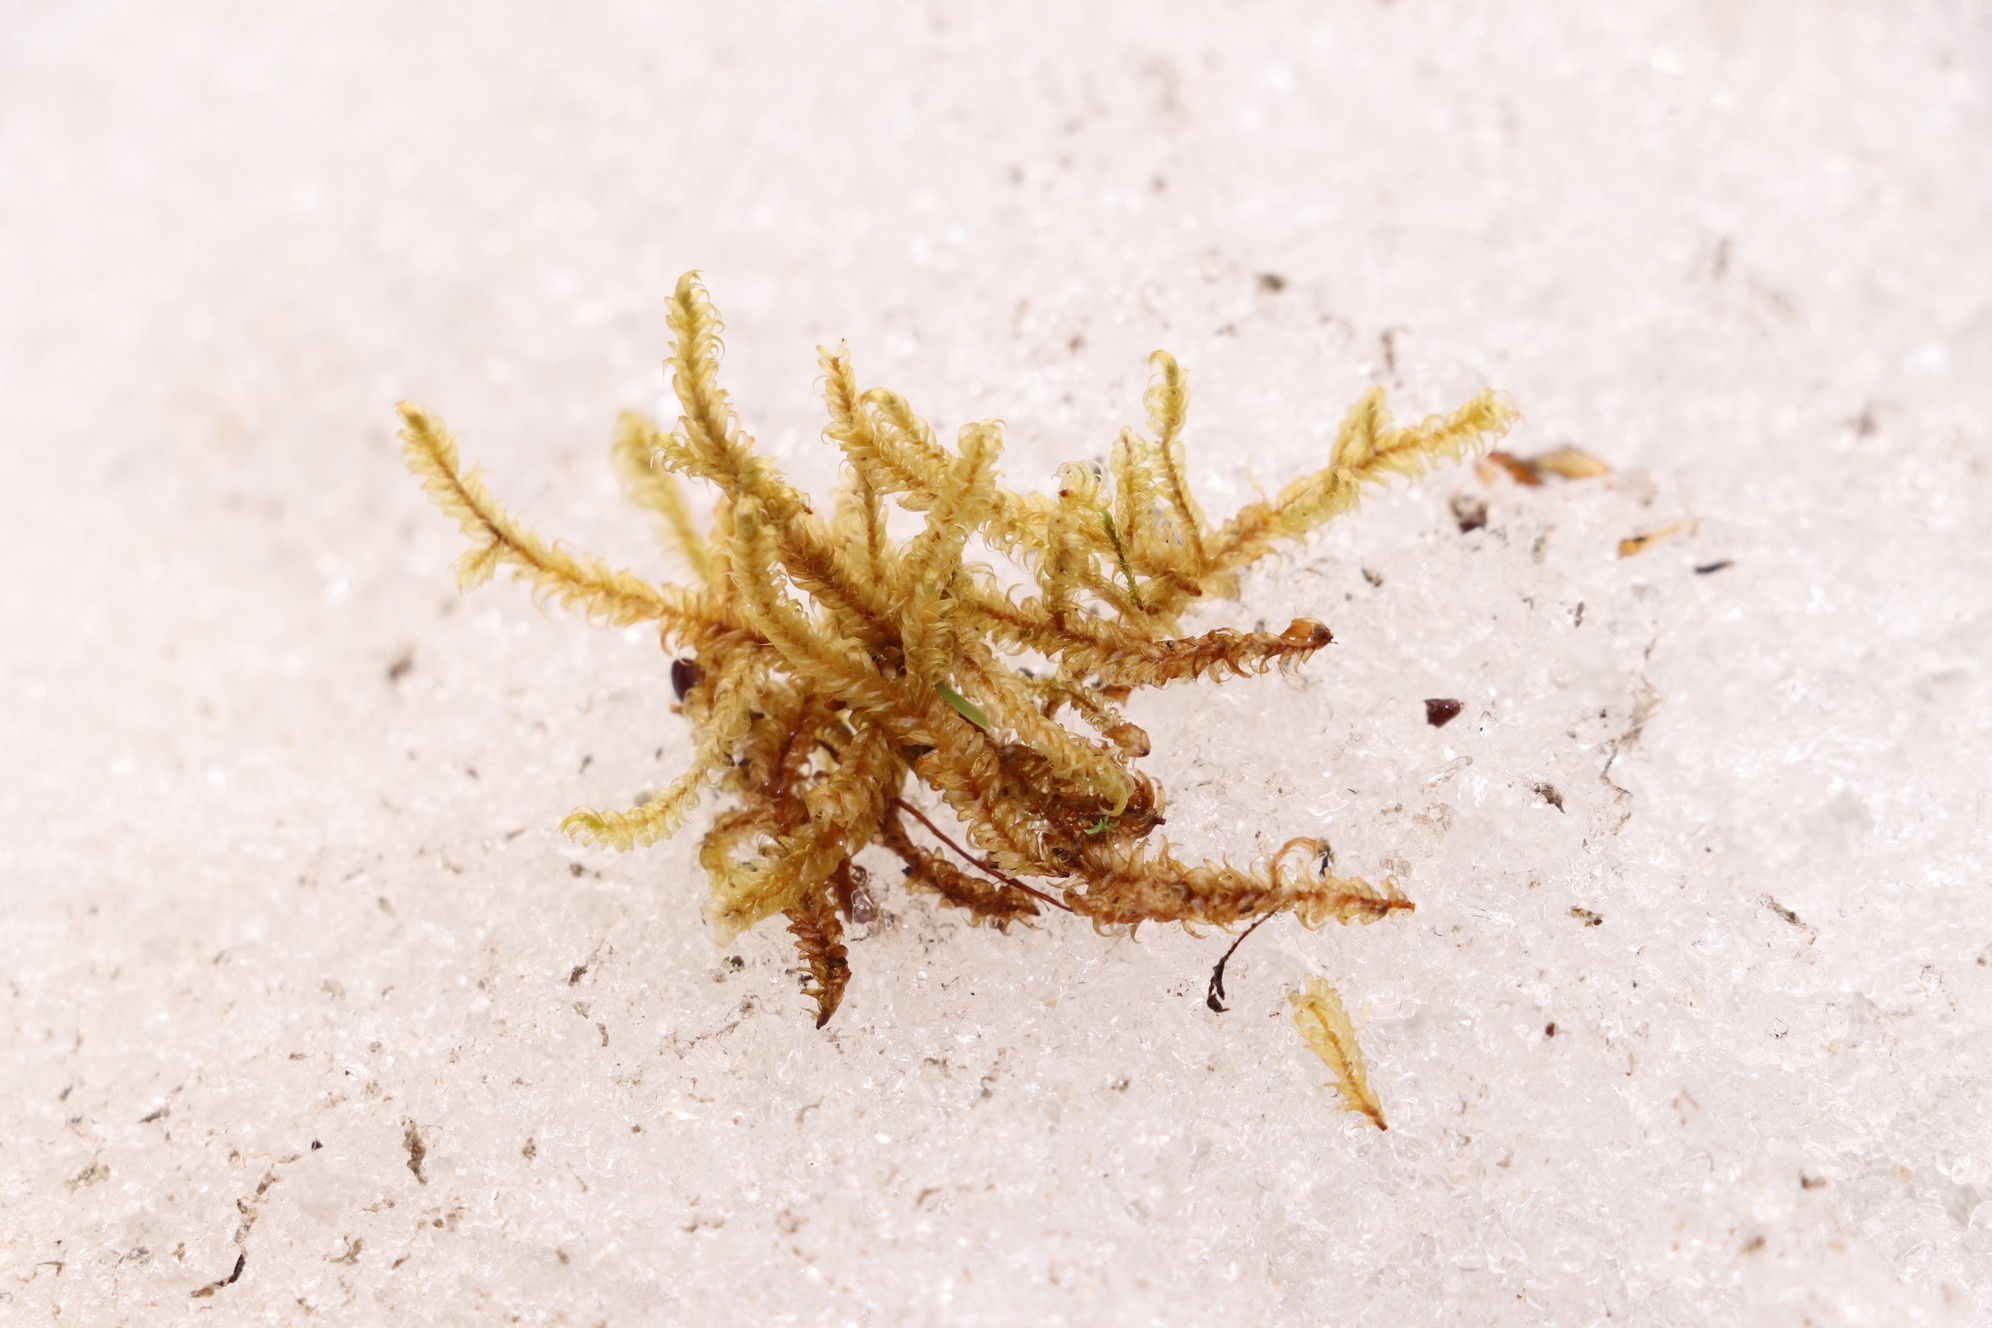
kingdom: Plantae
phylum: Bryophyta
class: Bryopsida
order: Hypnales
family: Scorpidiaceae
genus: Sanionia
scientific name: Sanionia uncinata
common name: Sickle moss
